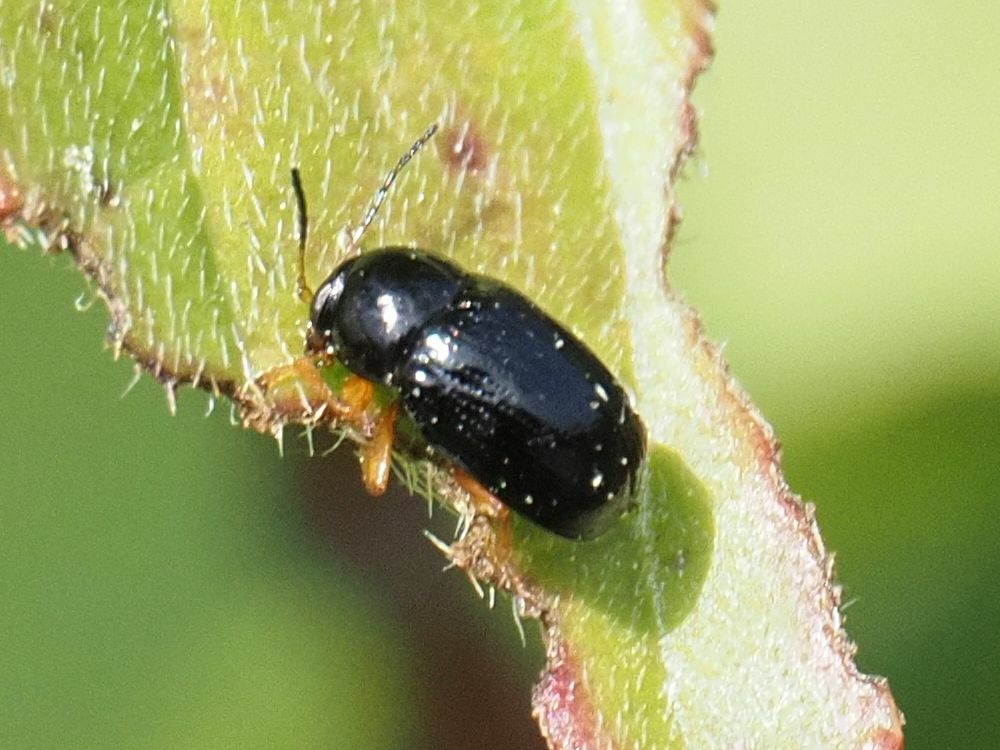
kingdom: Animalia
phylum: Arthropoda
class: Insecta
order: Coleoptera
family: Chrysomelidae
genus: Cryptocephalus
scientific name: Cryptocephalus ocellatus
